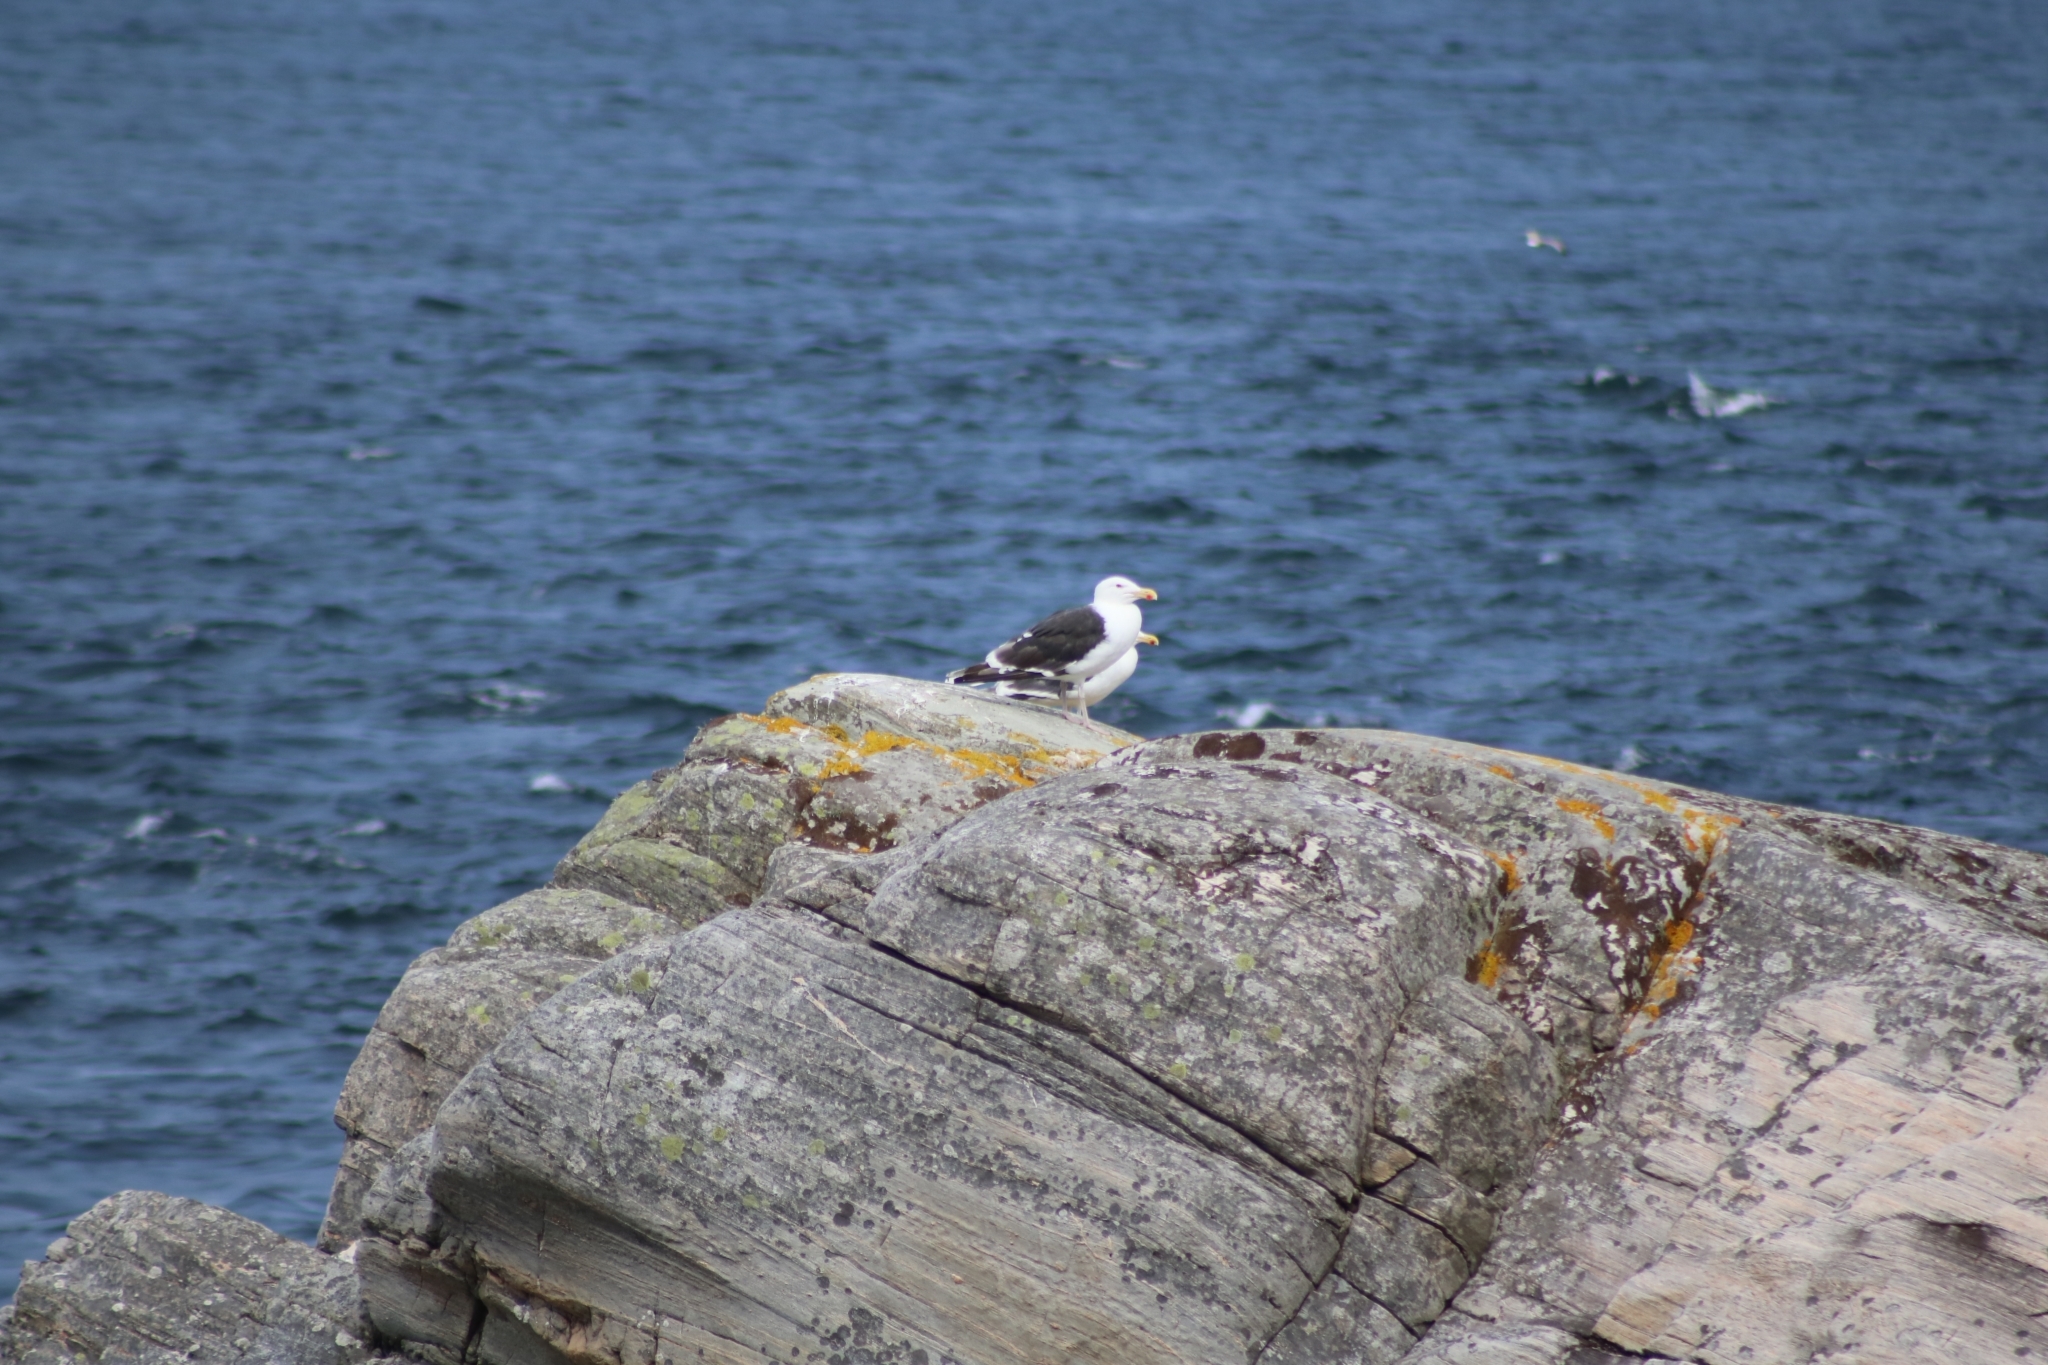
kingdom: Animalia
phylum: Chordata
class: Aves
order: Charadriiformes
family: Laridae
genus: Larus
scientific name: Larus marinus
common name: Great black-backed gull
